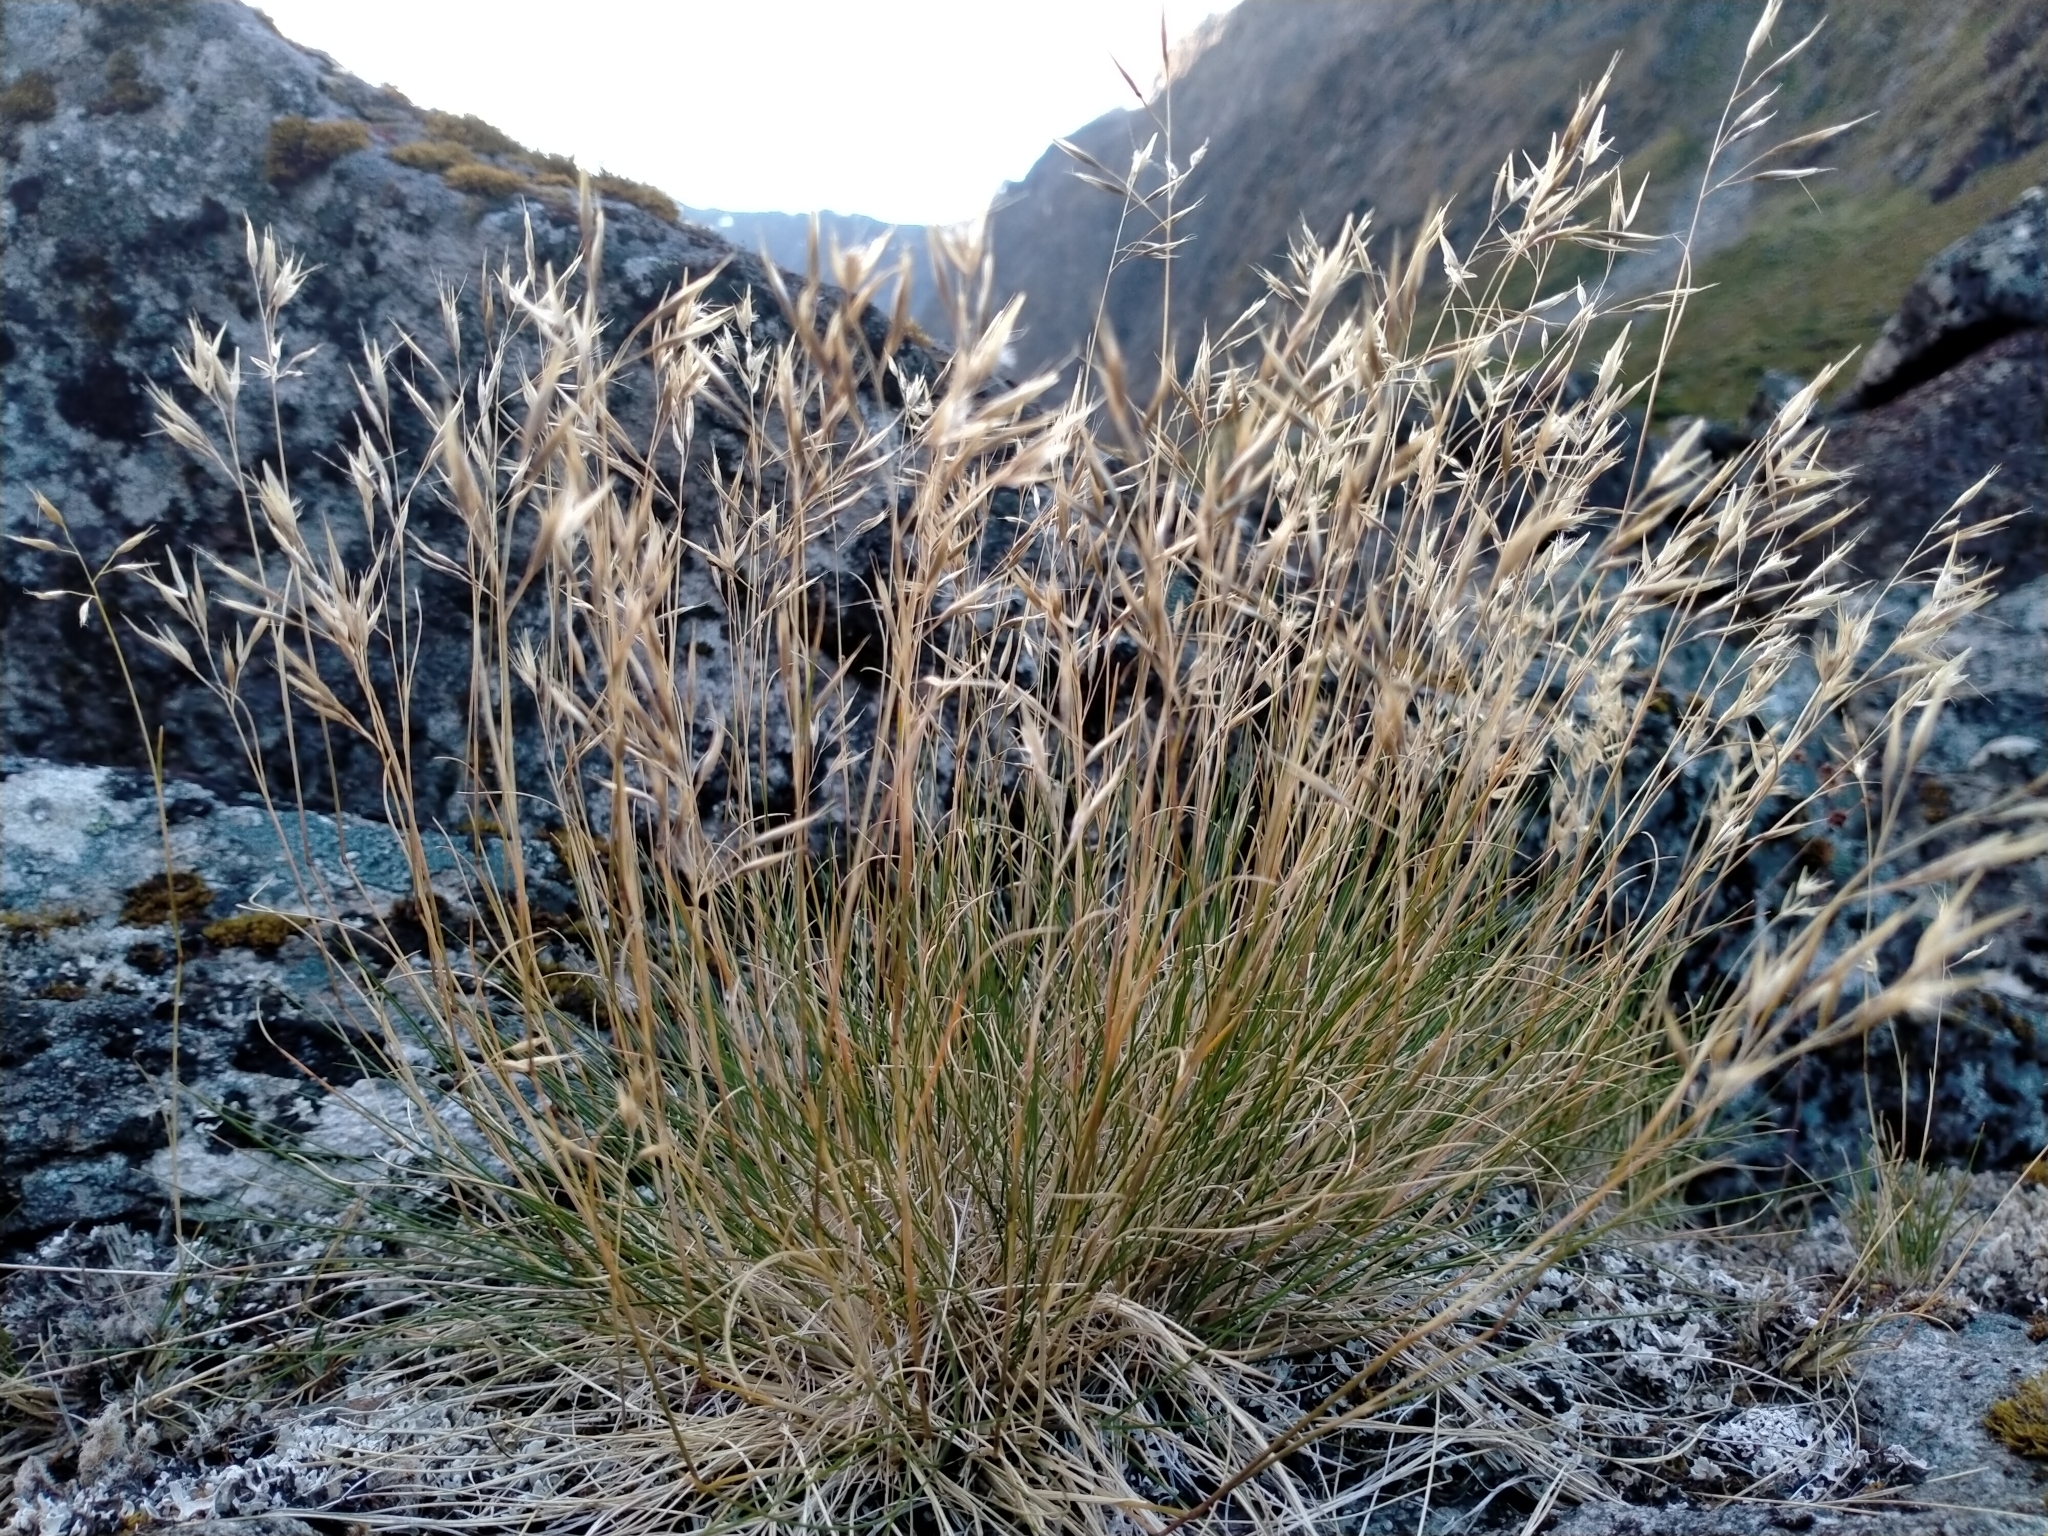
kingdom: Plantae
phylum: Tracheophyta
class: Liliopsida
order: Poales
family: Poaceae
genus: Rytidosperma
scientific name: Rytidosperma setifolium
